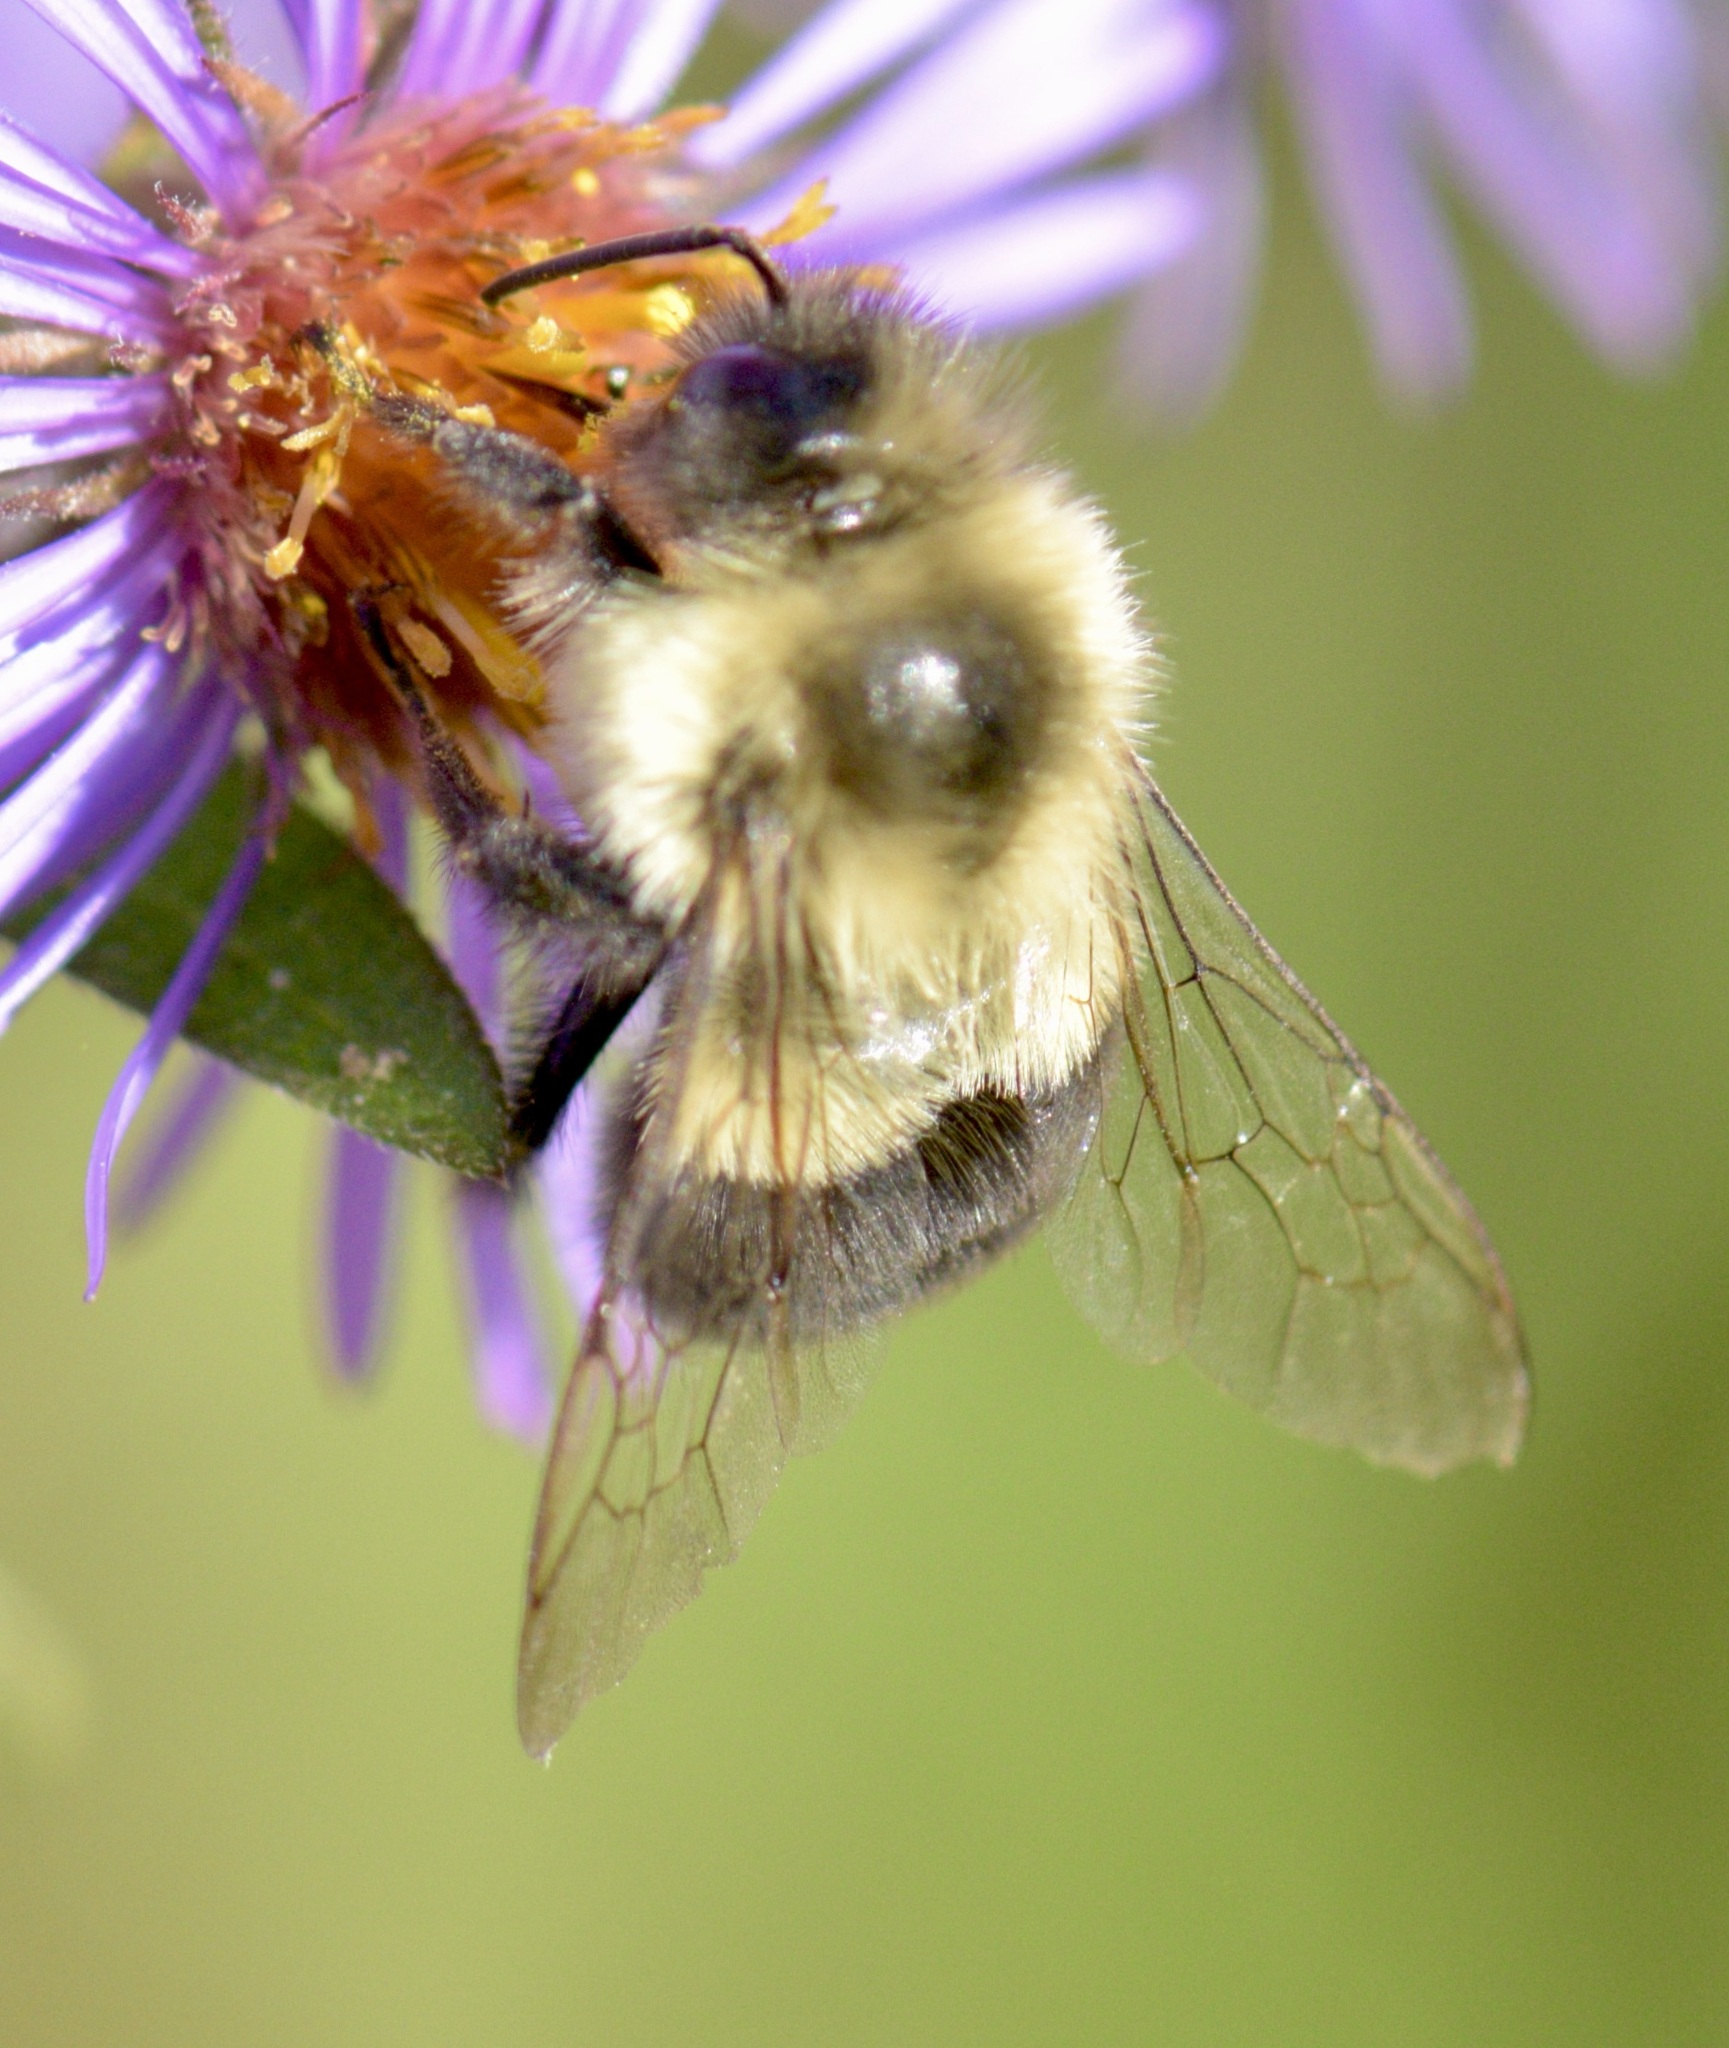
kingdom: Animalia
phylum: Arthropoda
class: Insecta
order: Hymenoptera
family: Apidae
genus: Bombus
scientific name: Bombus impatiens
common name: Common eastern bumble bee
